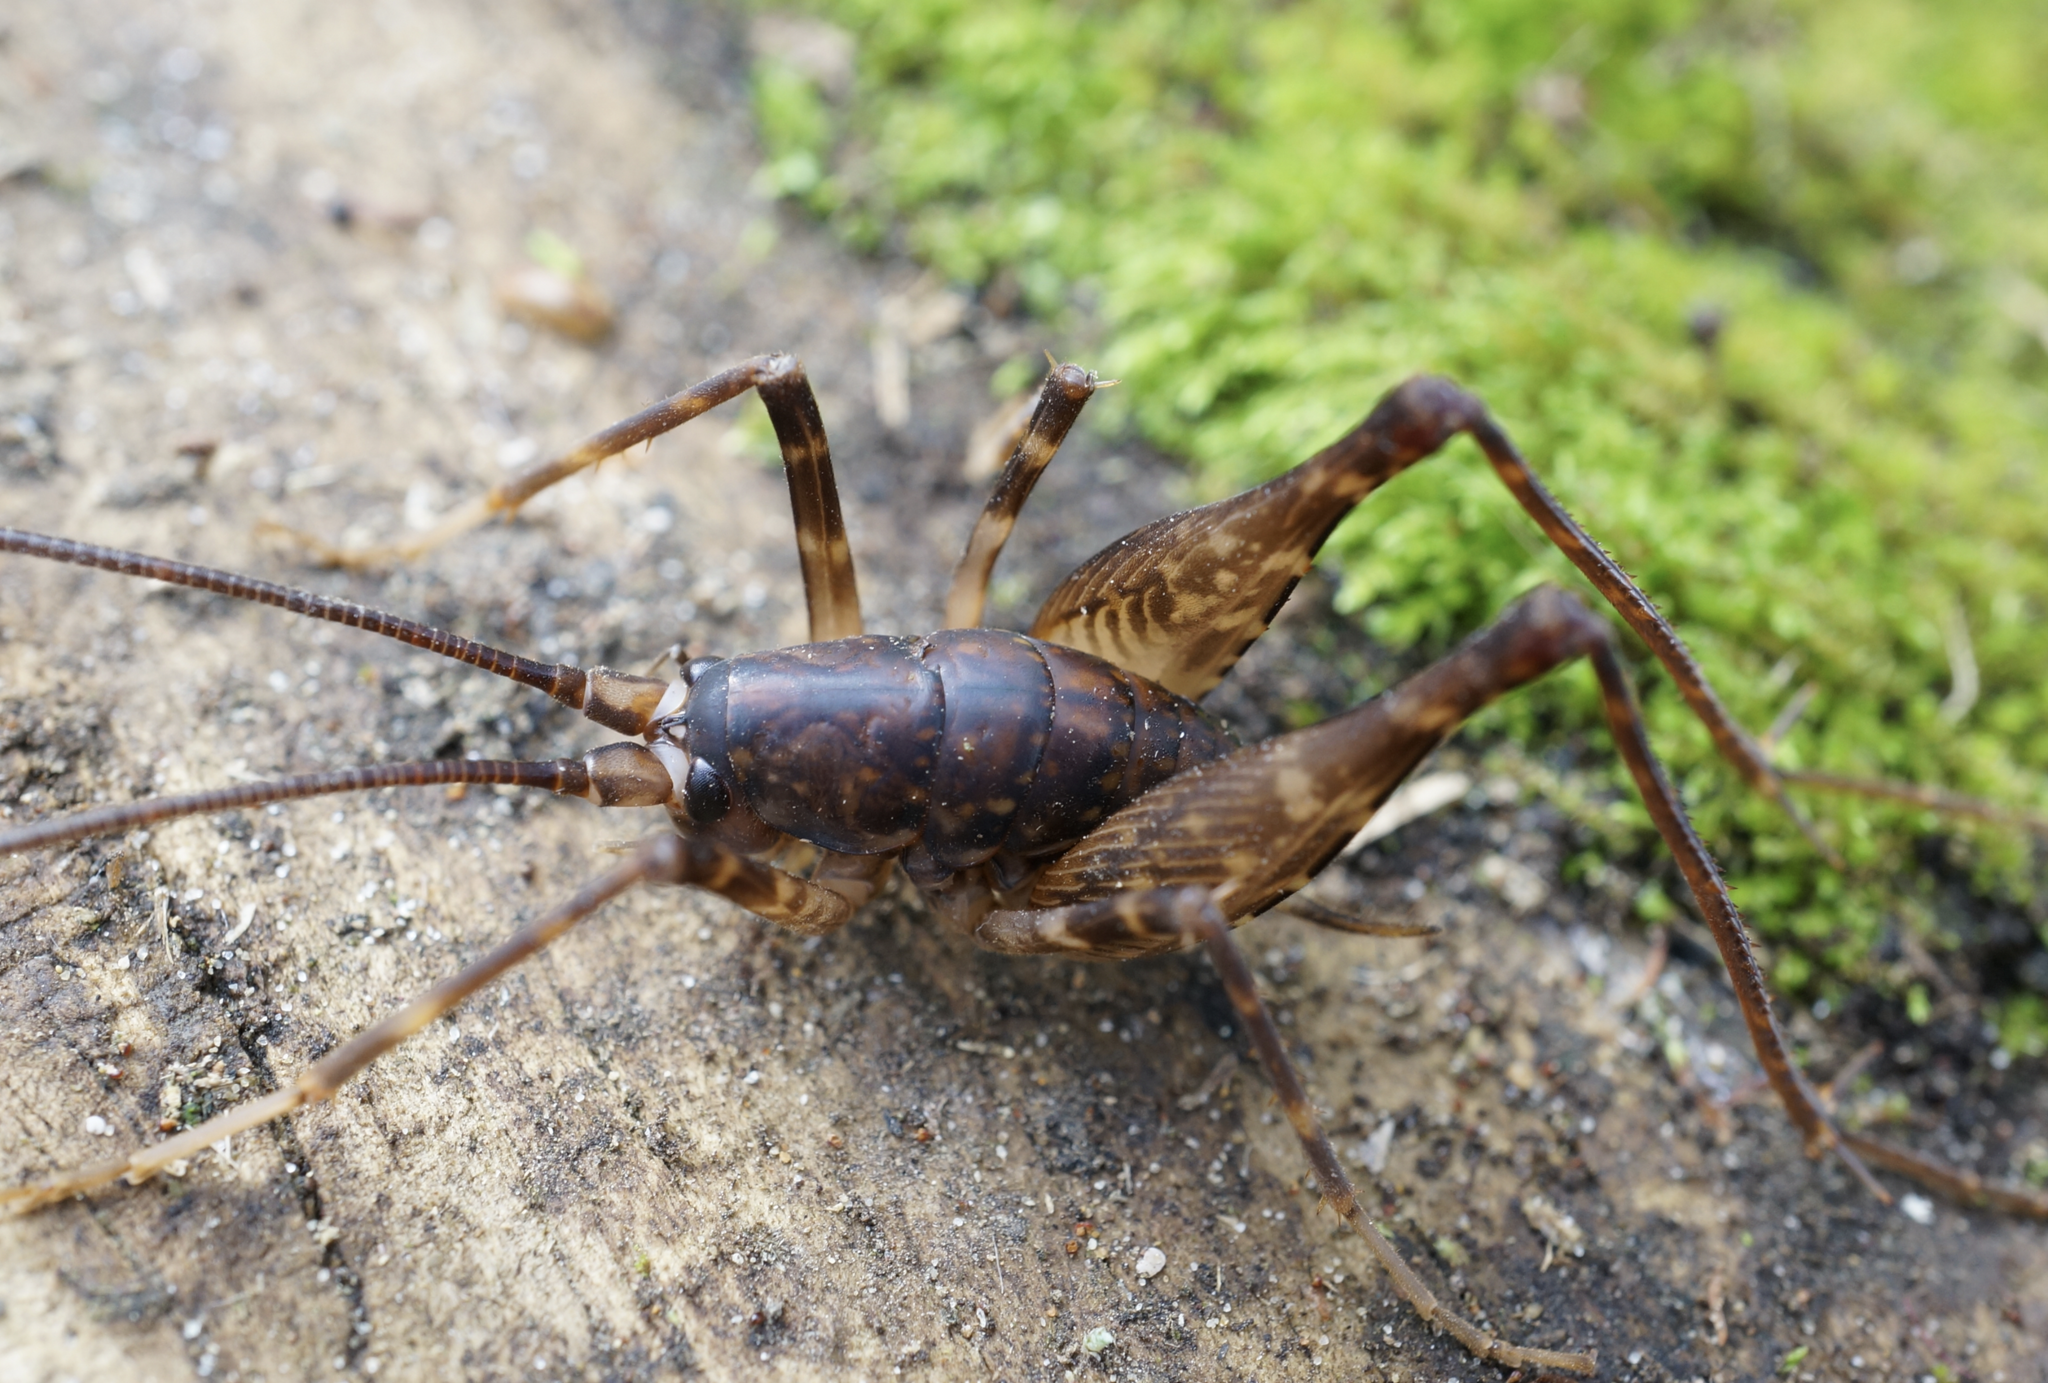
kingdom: Animalia
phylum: Arthropoda
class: Insecta
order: Orthoptera
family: Rhaphidophoridae
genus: Miotopus
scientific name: Miotopus diversus
